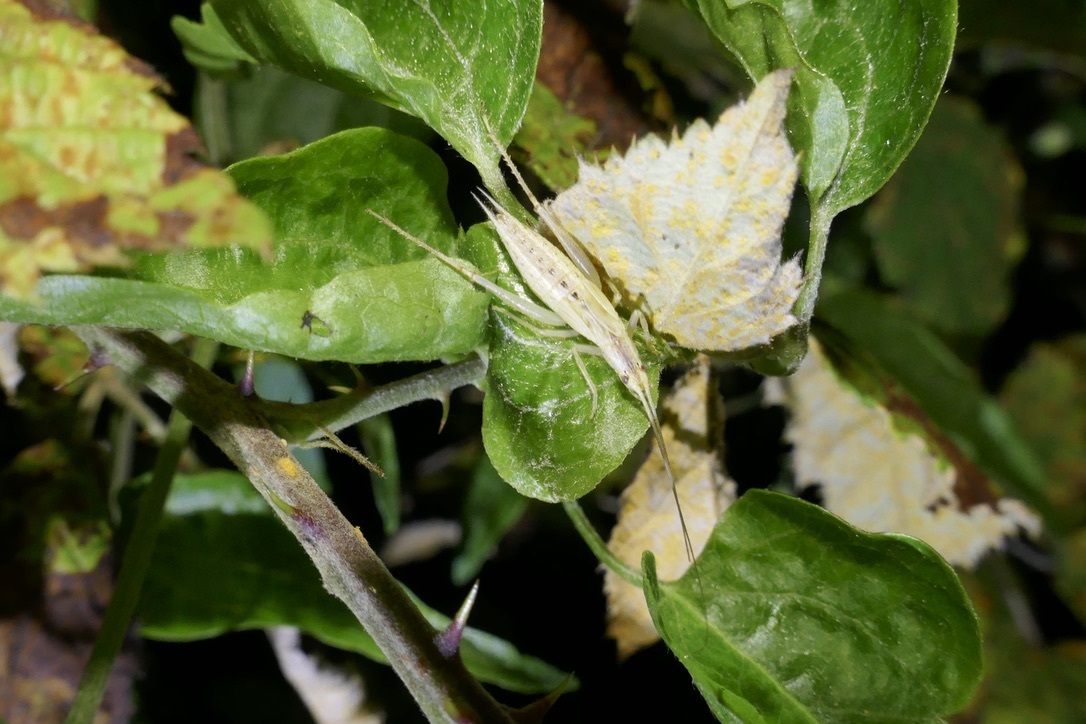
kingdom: Animalia
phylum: Arthropoda
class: Insecta
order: Orthoptera
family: Gryllidae
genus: Oecanthus
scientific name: Oecanthus pellucens
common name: Tree-cricket
